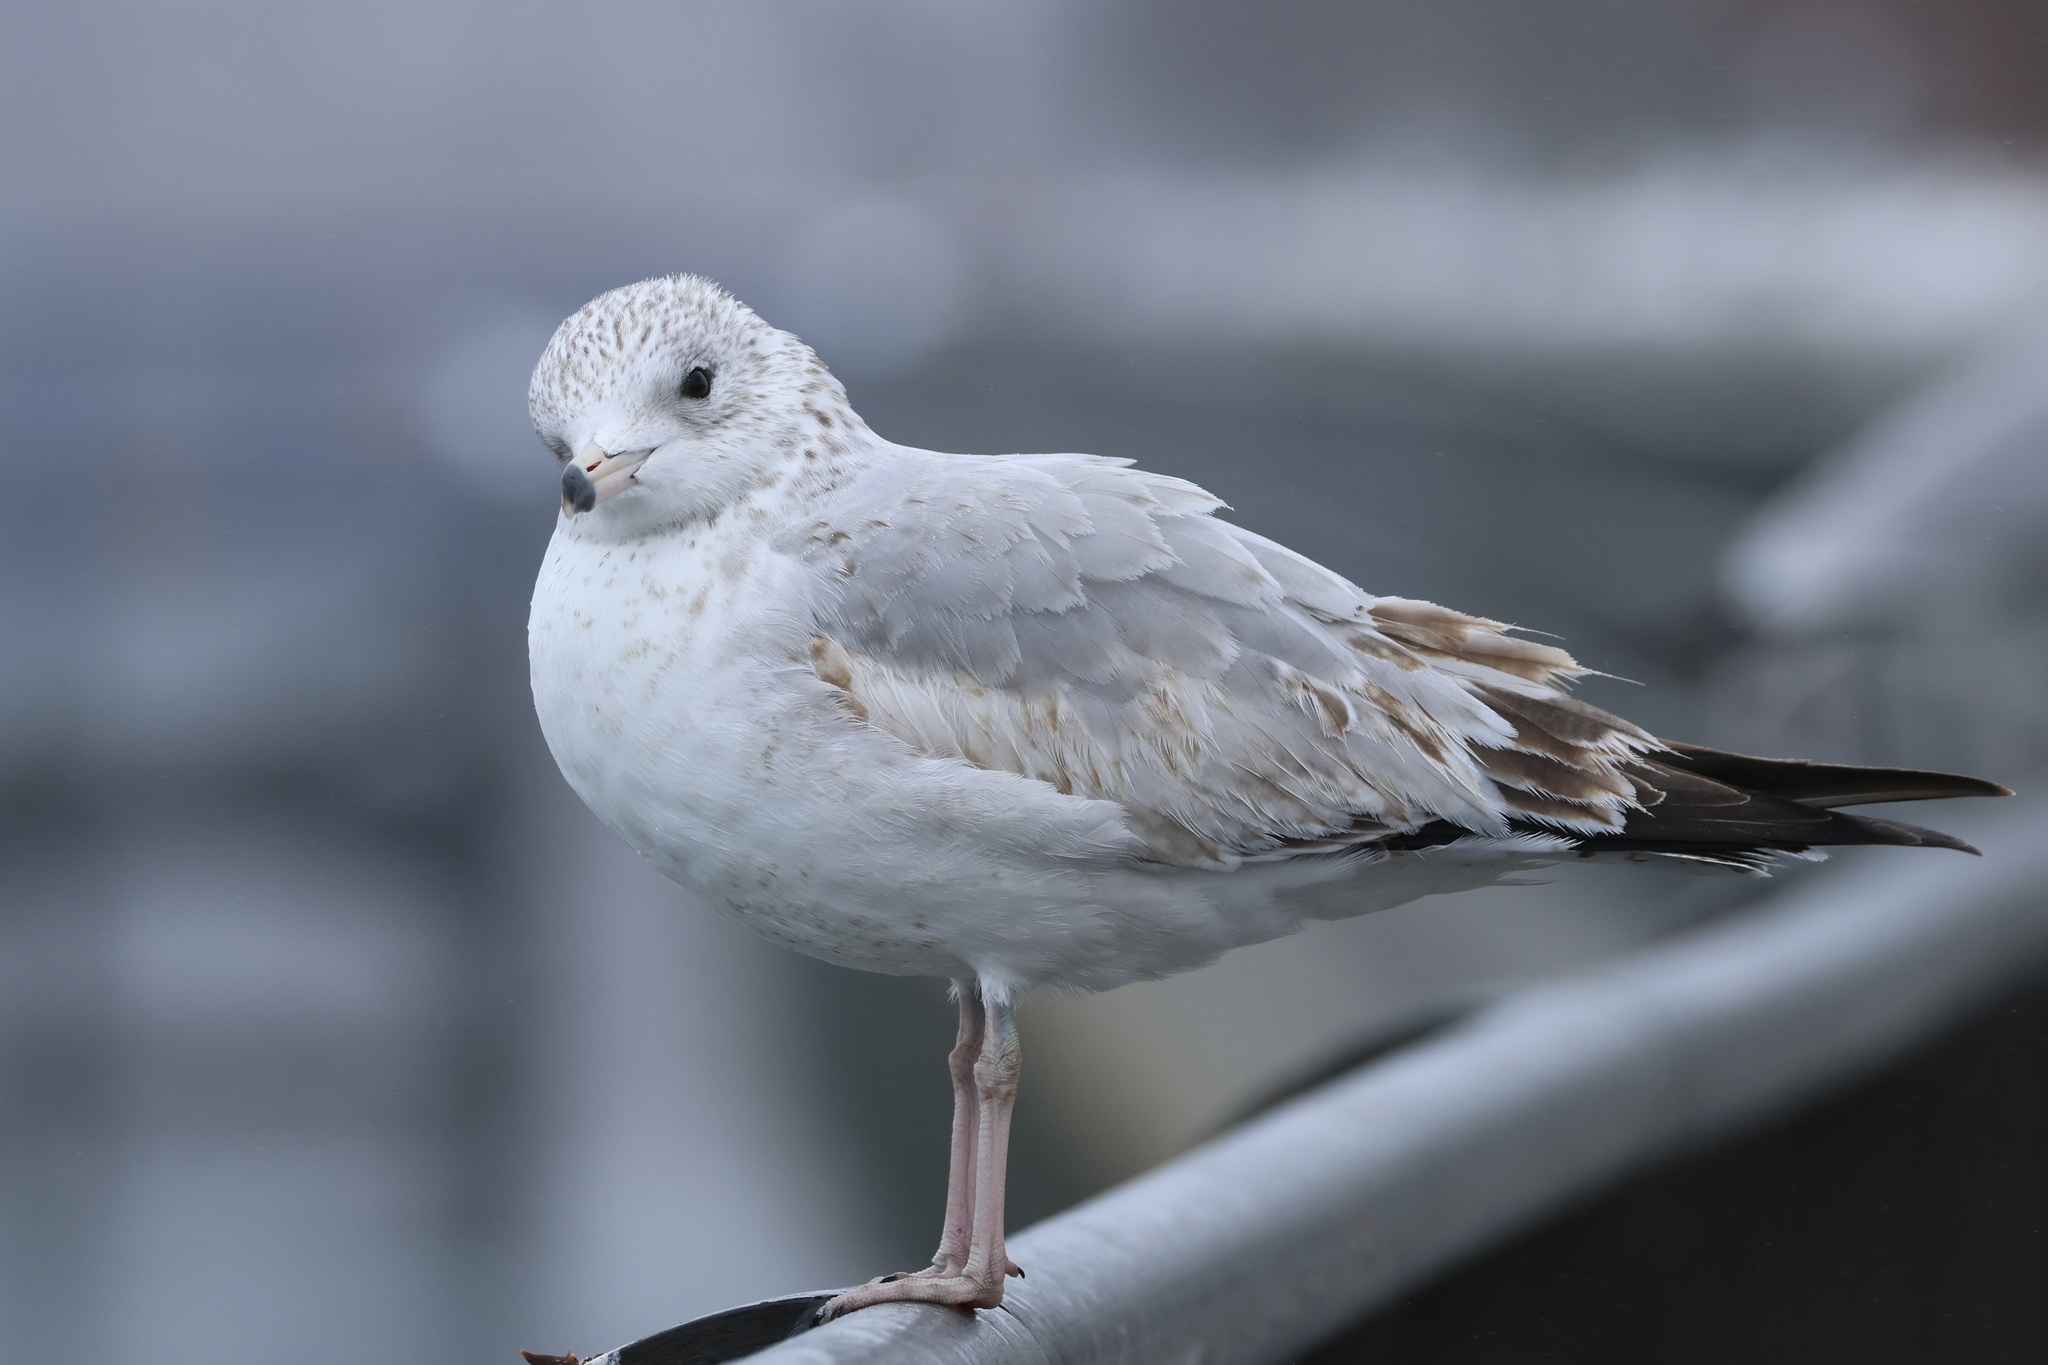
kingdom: Animalia
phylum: Chordata
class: Aves
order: Charadriiformes
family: Laridae
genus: Larus
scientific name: Larus delawarensis
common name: Ring-billed gull
